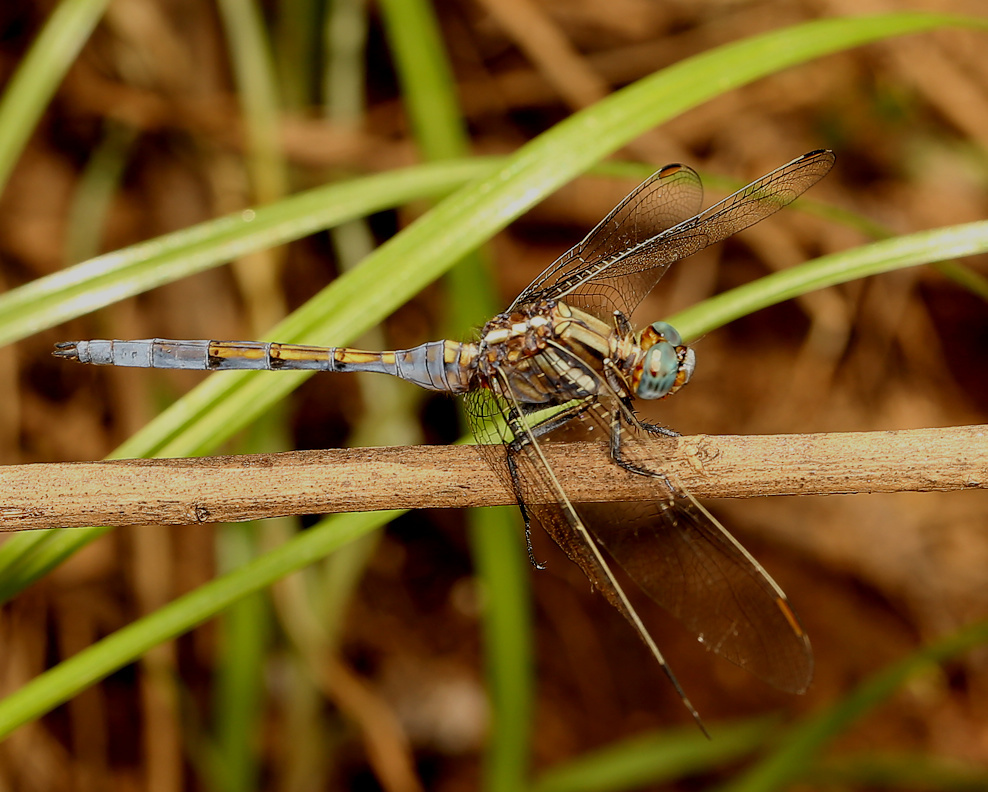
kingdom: Animalia
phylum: Arthropoda
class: Insecta
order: Odonata
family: Libellulidae
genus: Orthetrum
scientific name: Orthetrum chrysostigma
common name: Epaulet skimmer
